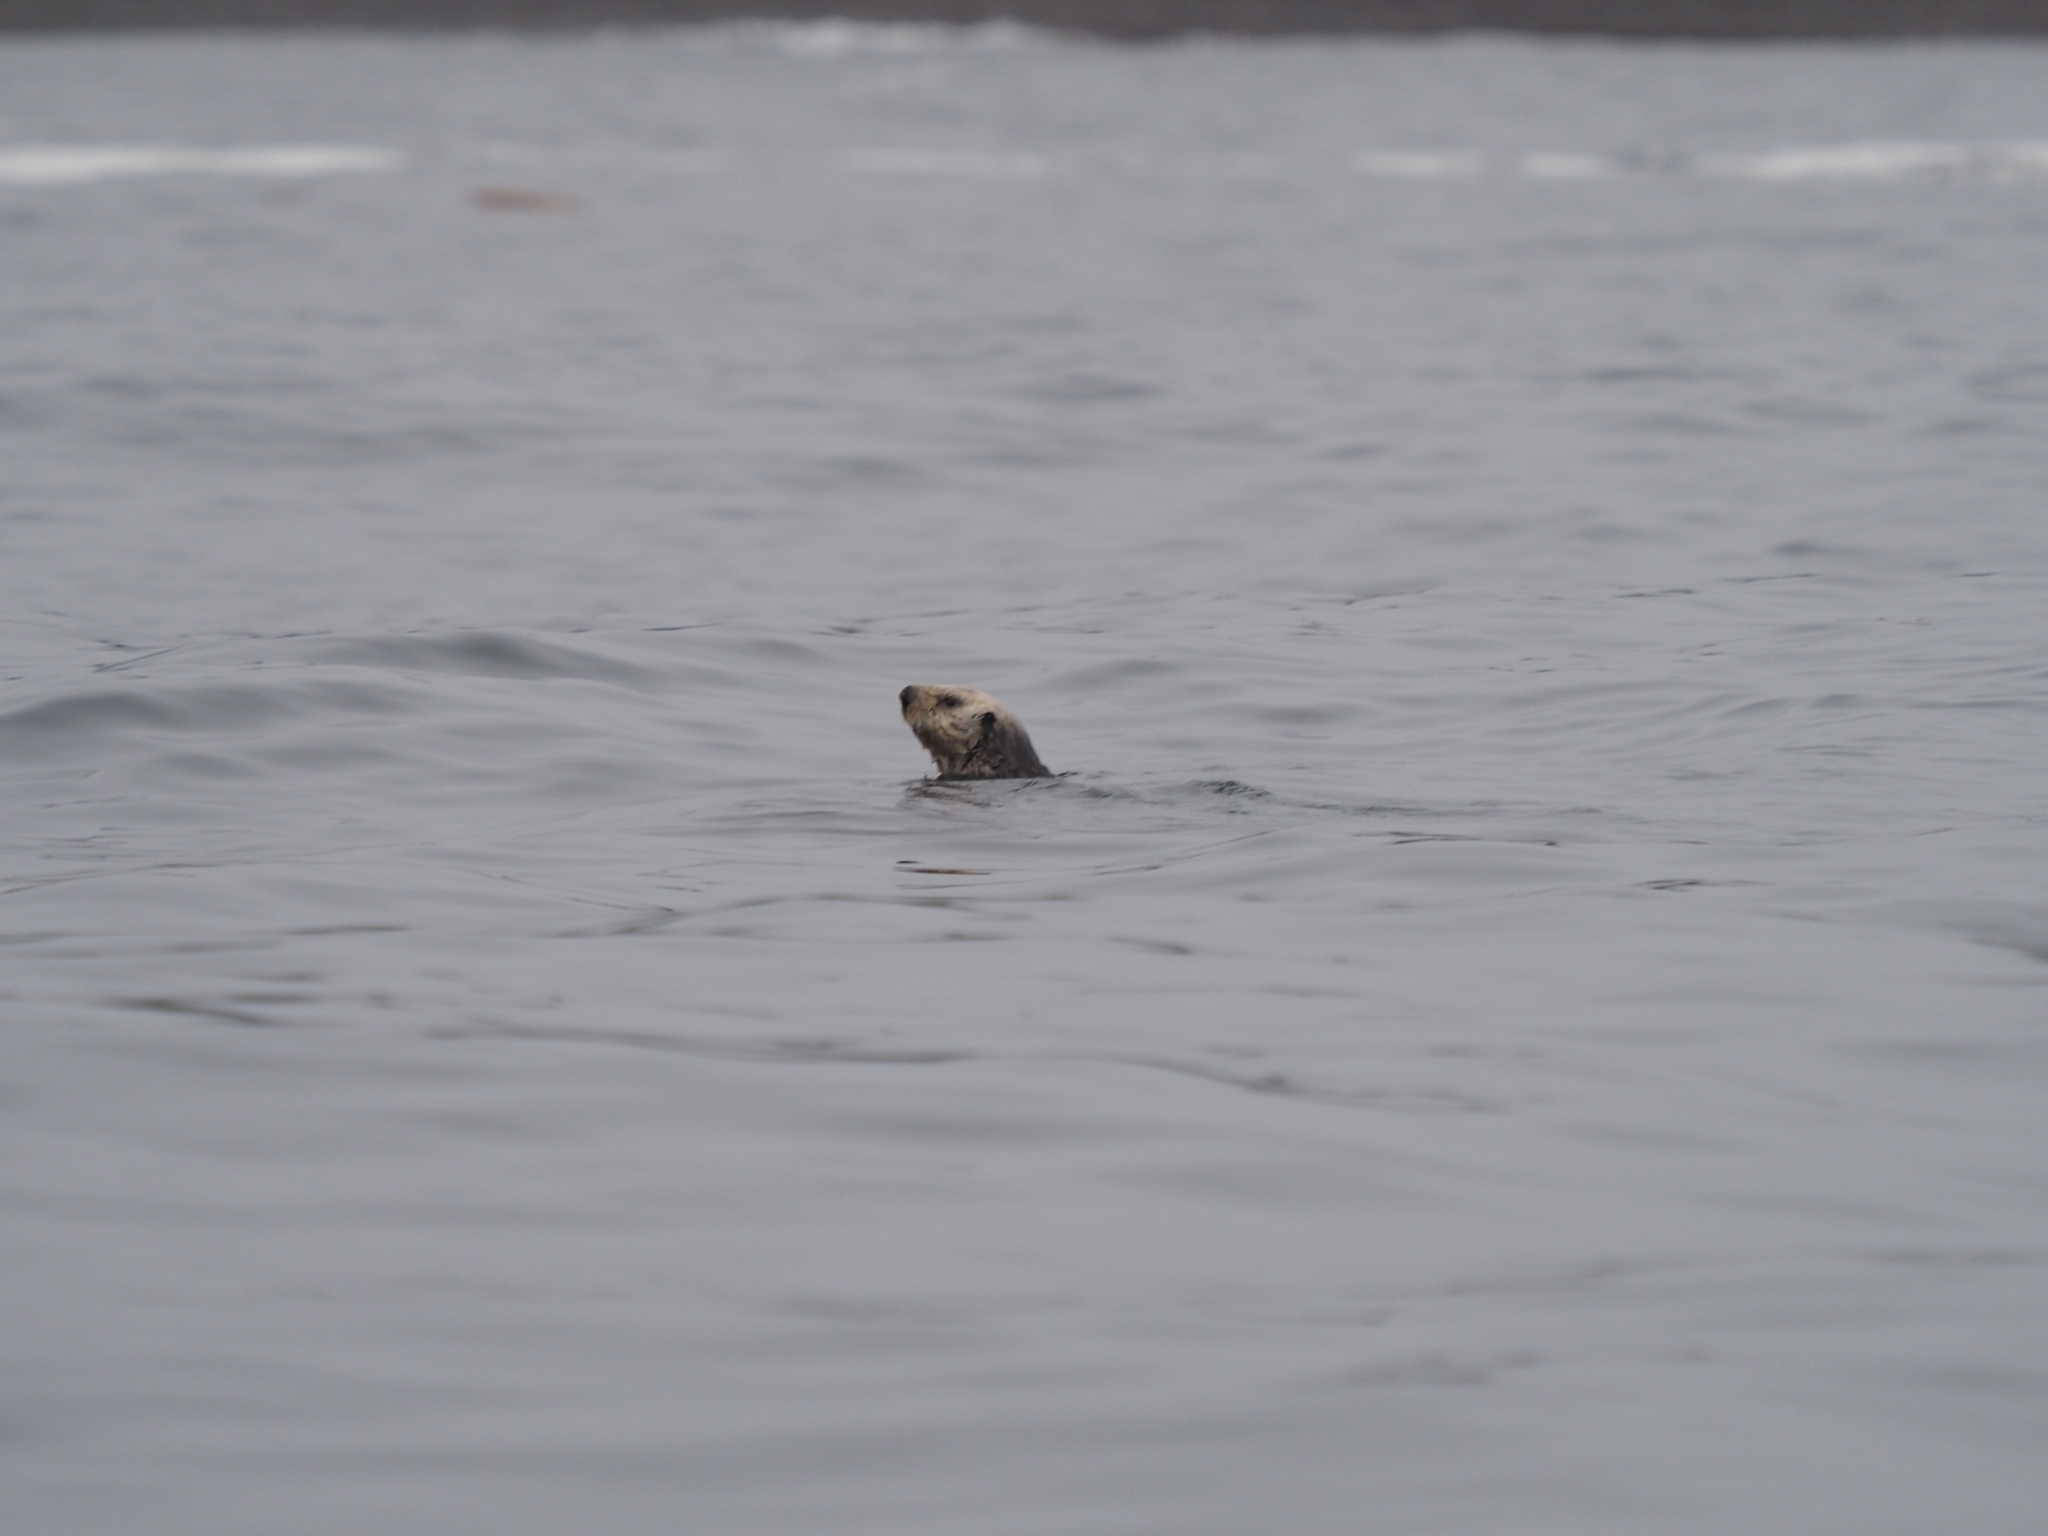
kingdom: Animalia
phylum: Chordata
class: Mammalia
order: Carnivora
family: Mustelidae
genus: Enhydra
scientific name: Enhydra lutris
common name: Sea otter
